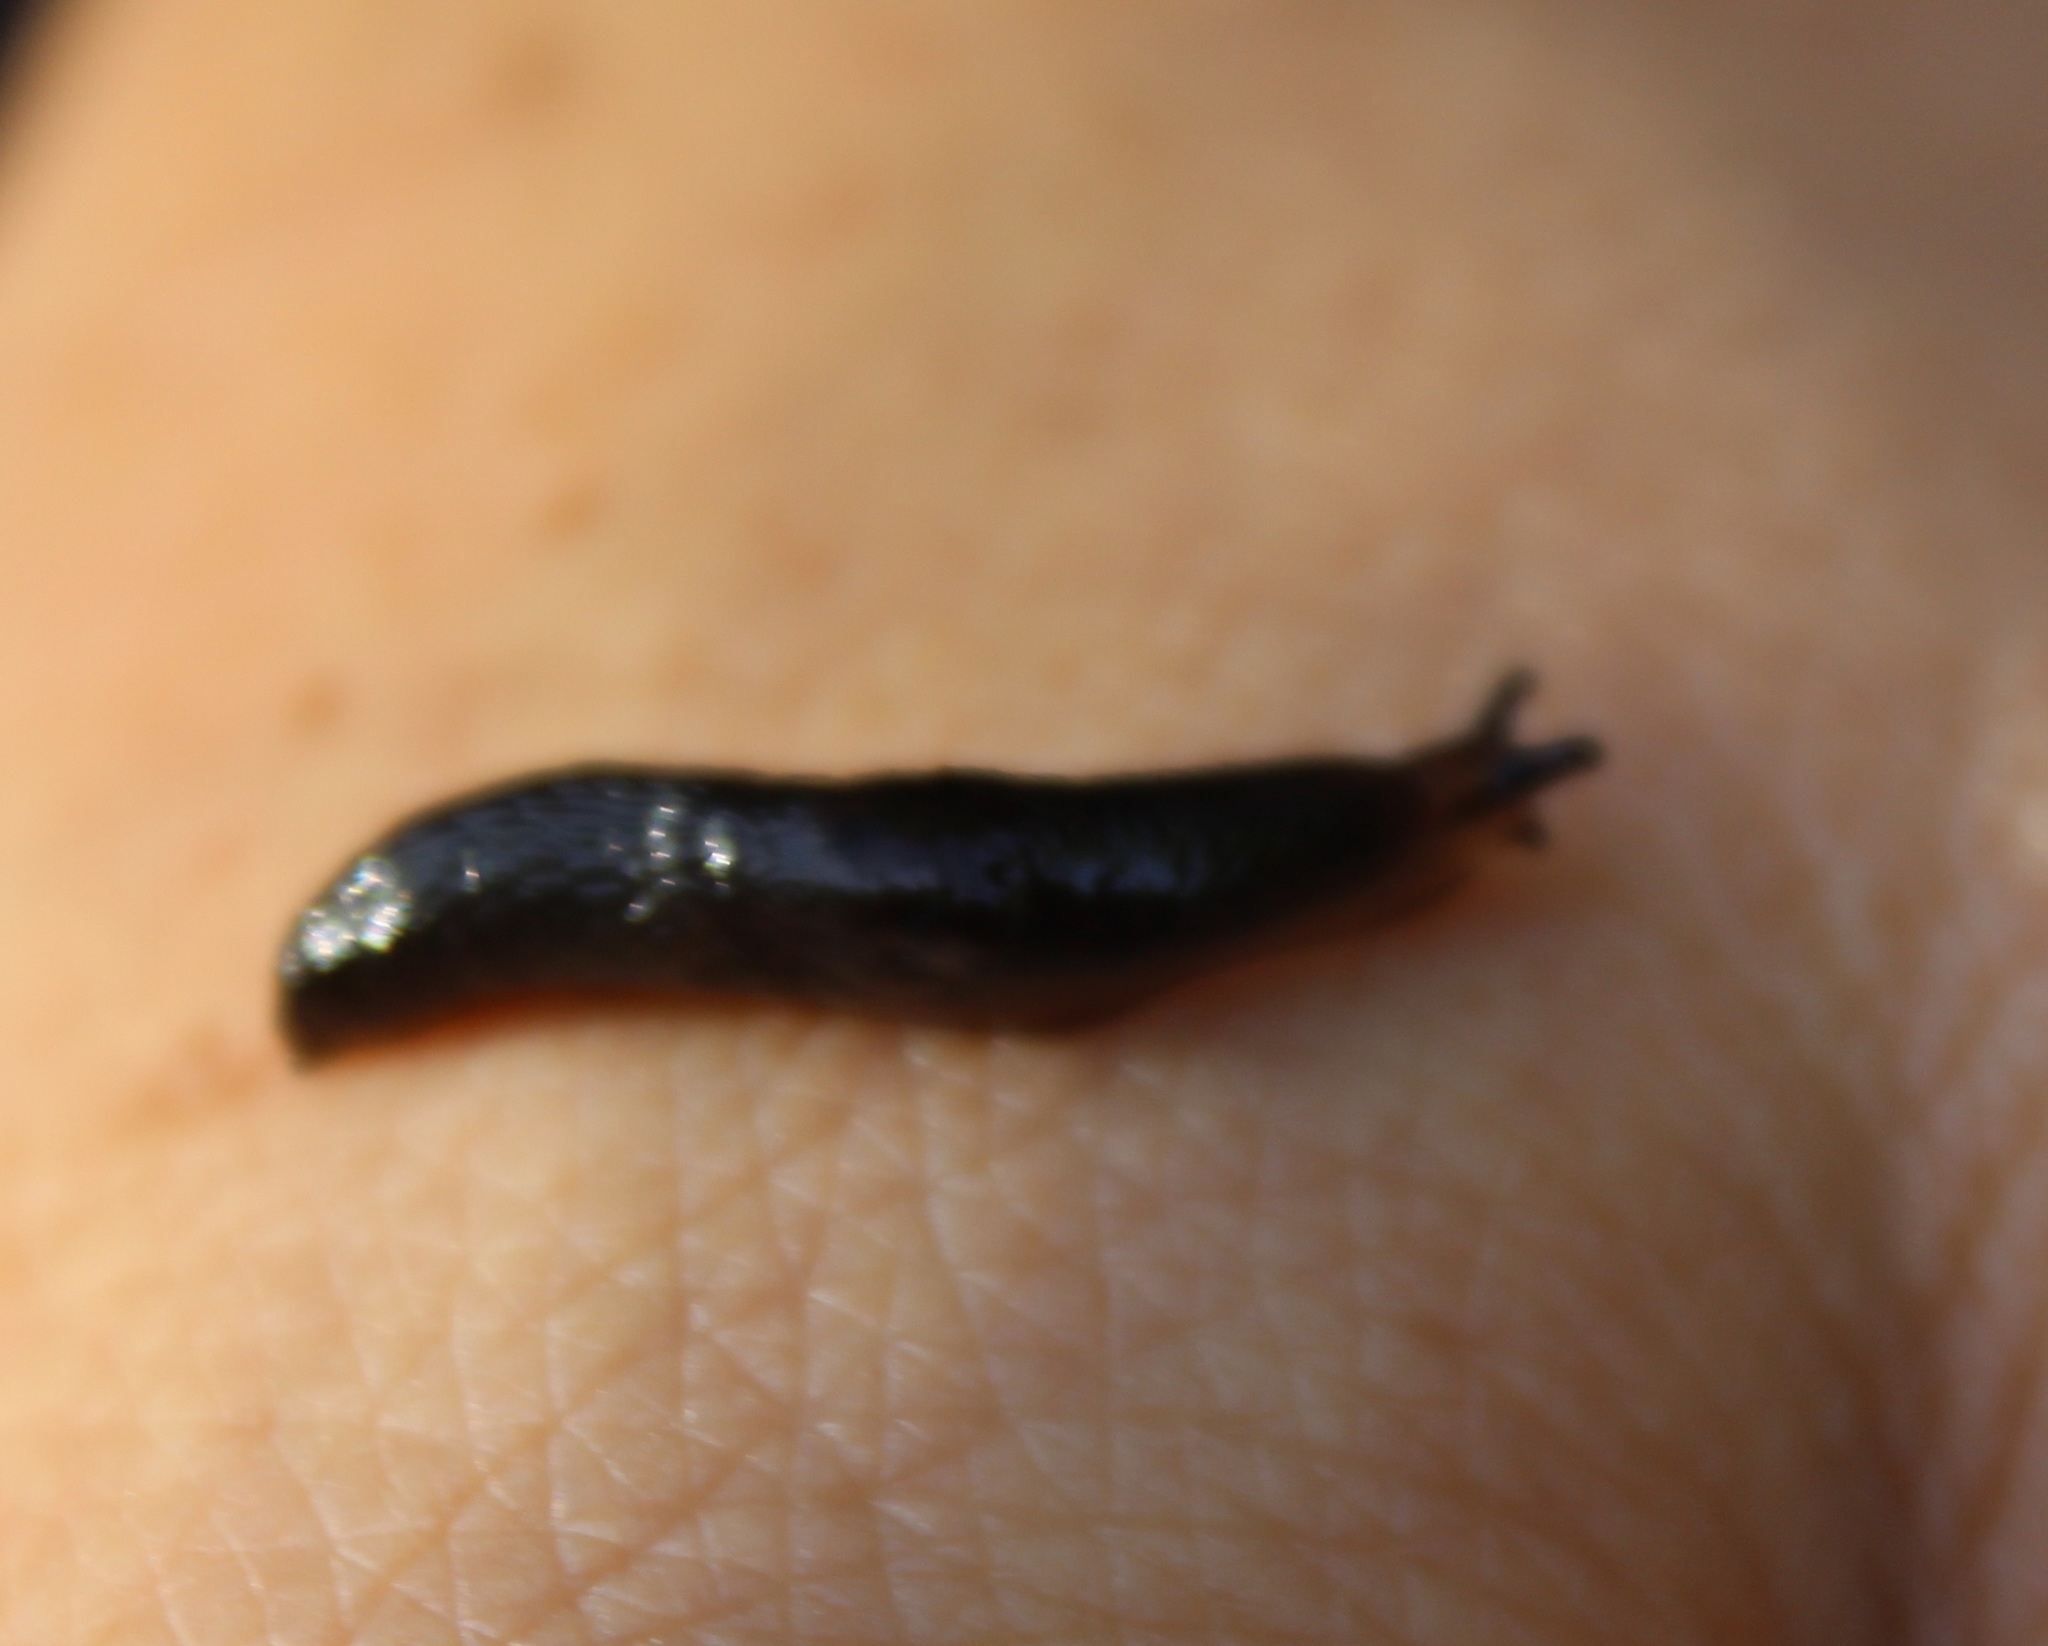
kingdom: Animalia
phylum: Mollusca
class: Gastropoda
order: Stylommatophora
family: Agriolimacidae
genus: Deroceras
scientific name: Deroceras laeve
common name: Marsh slug
